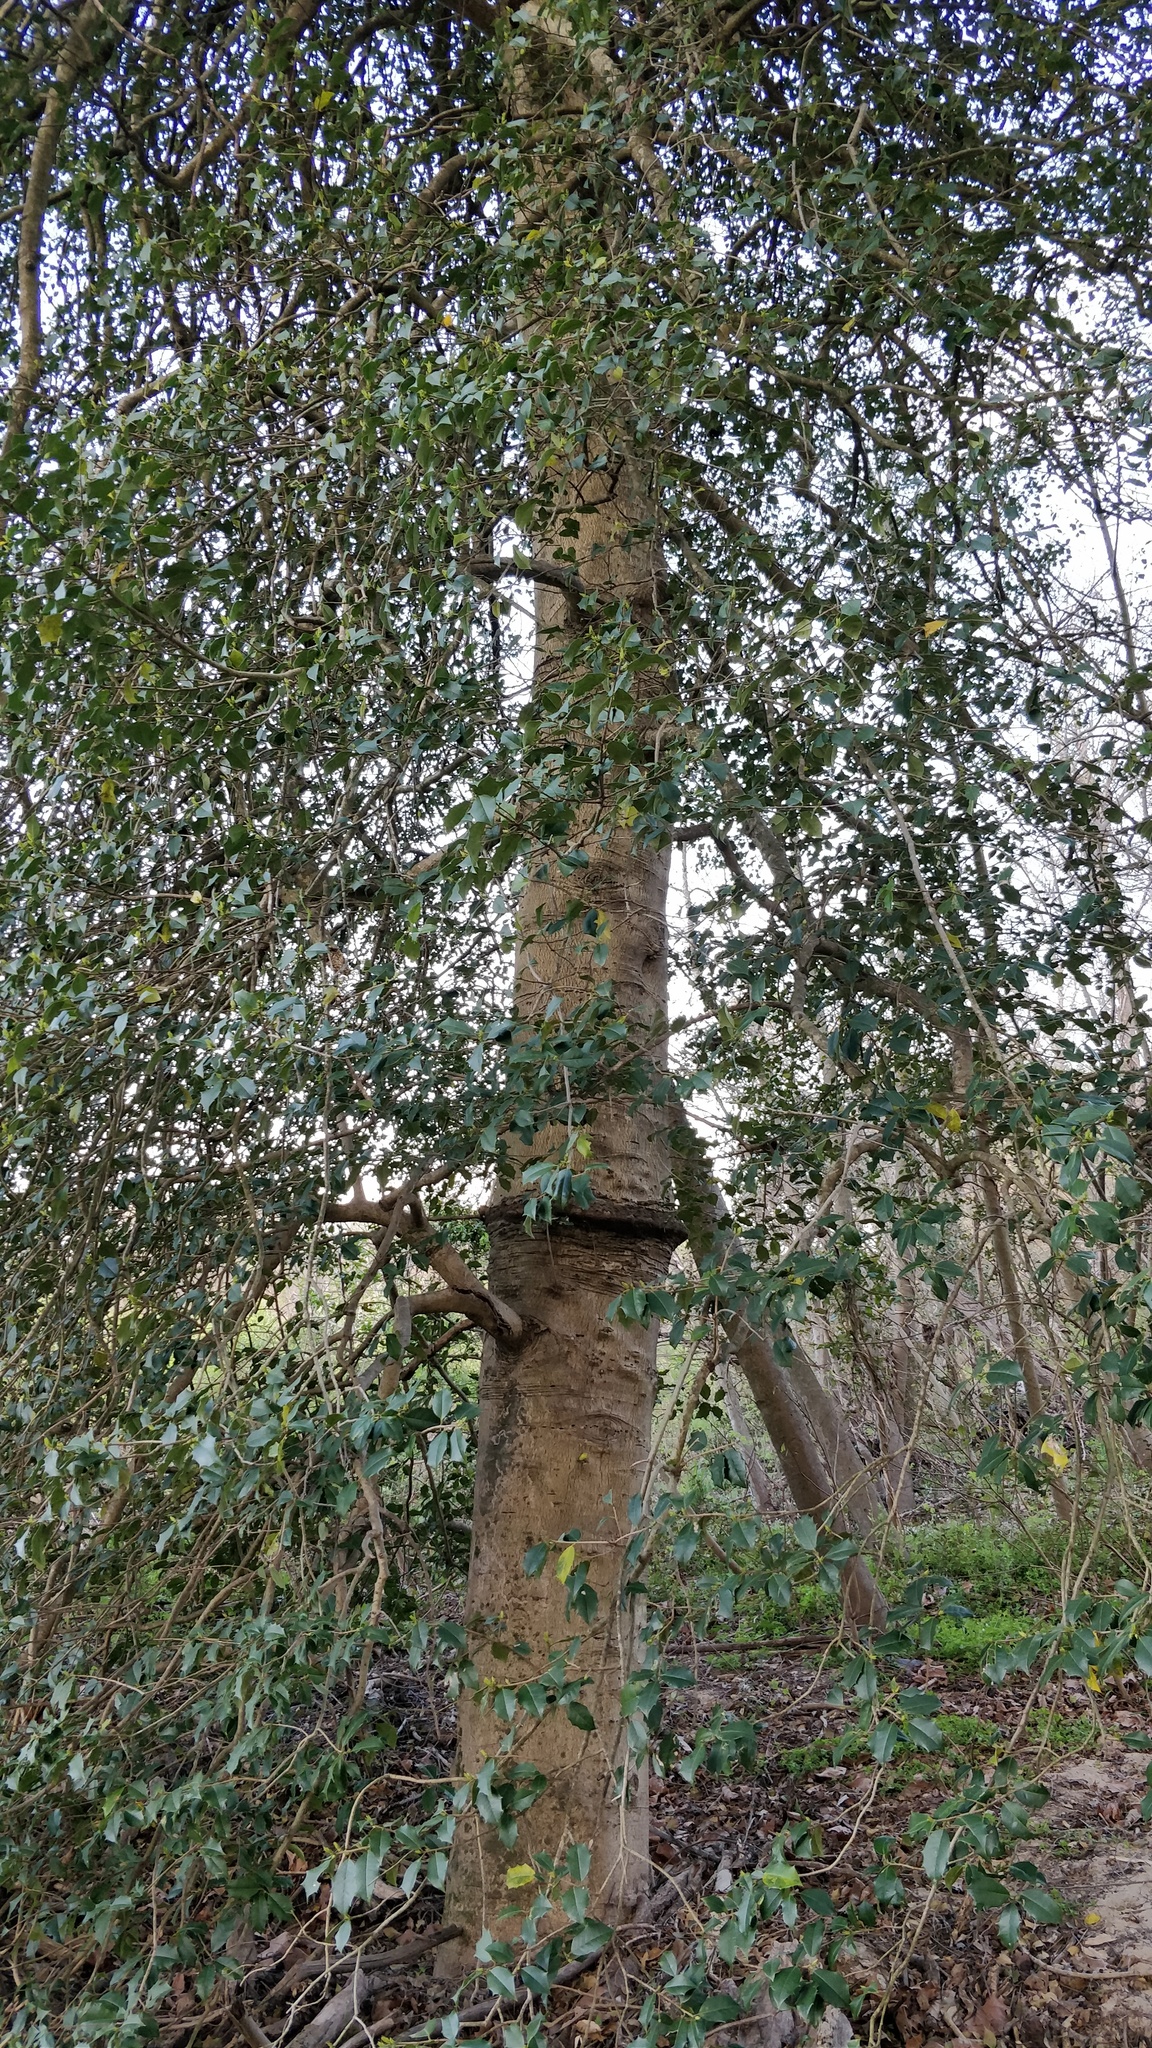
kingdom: Plantae
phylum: Tracheophyta
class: Magnoliopsida
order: Aquifoliales
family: Aquifoliaceae
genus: Ilex
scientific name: Ilex opaca
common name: American holly
